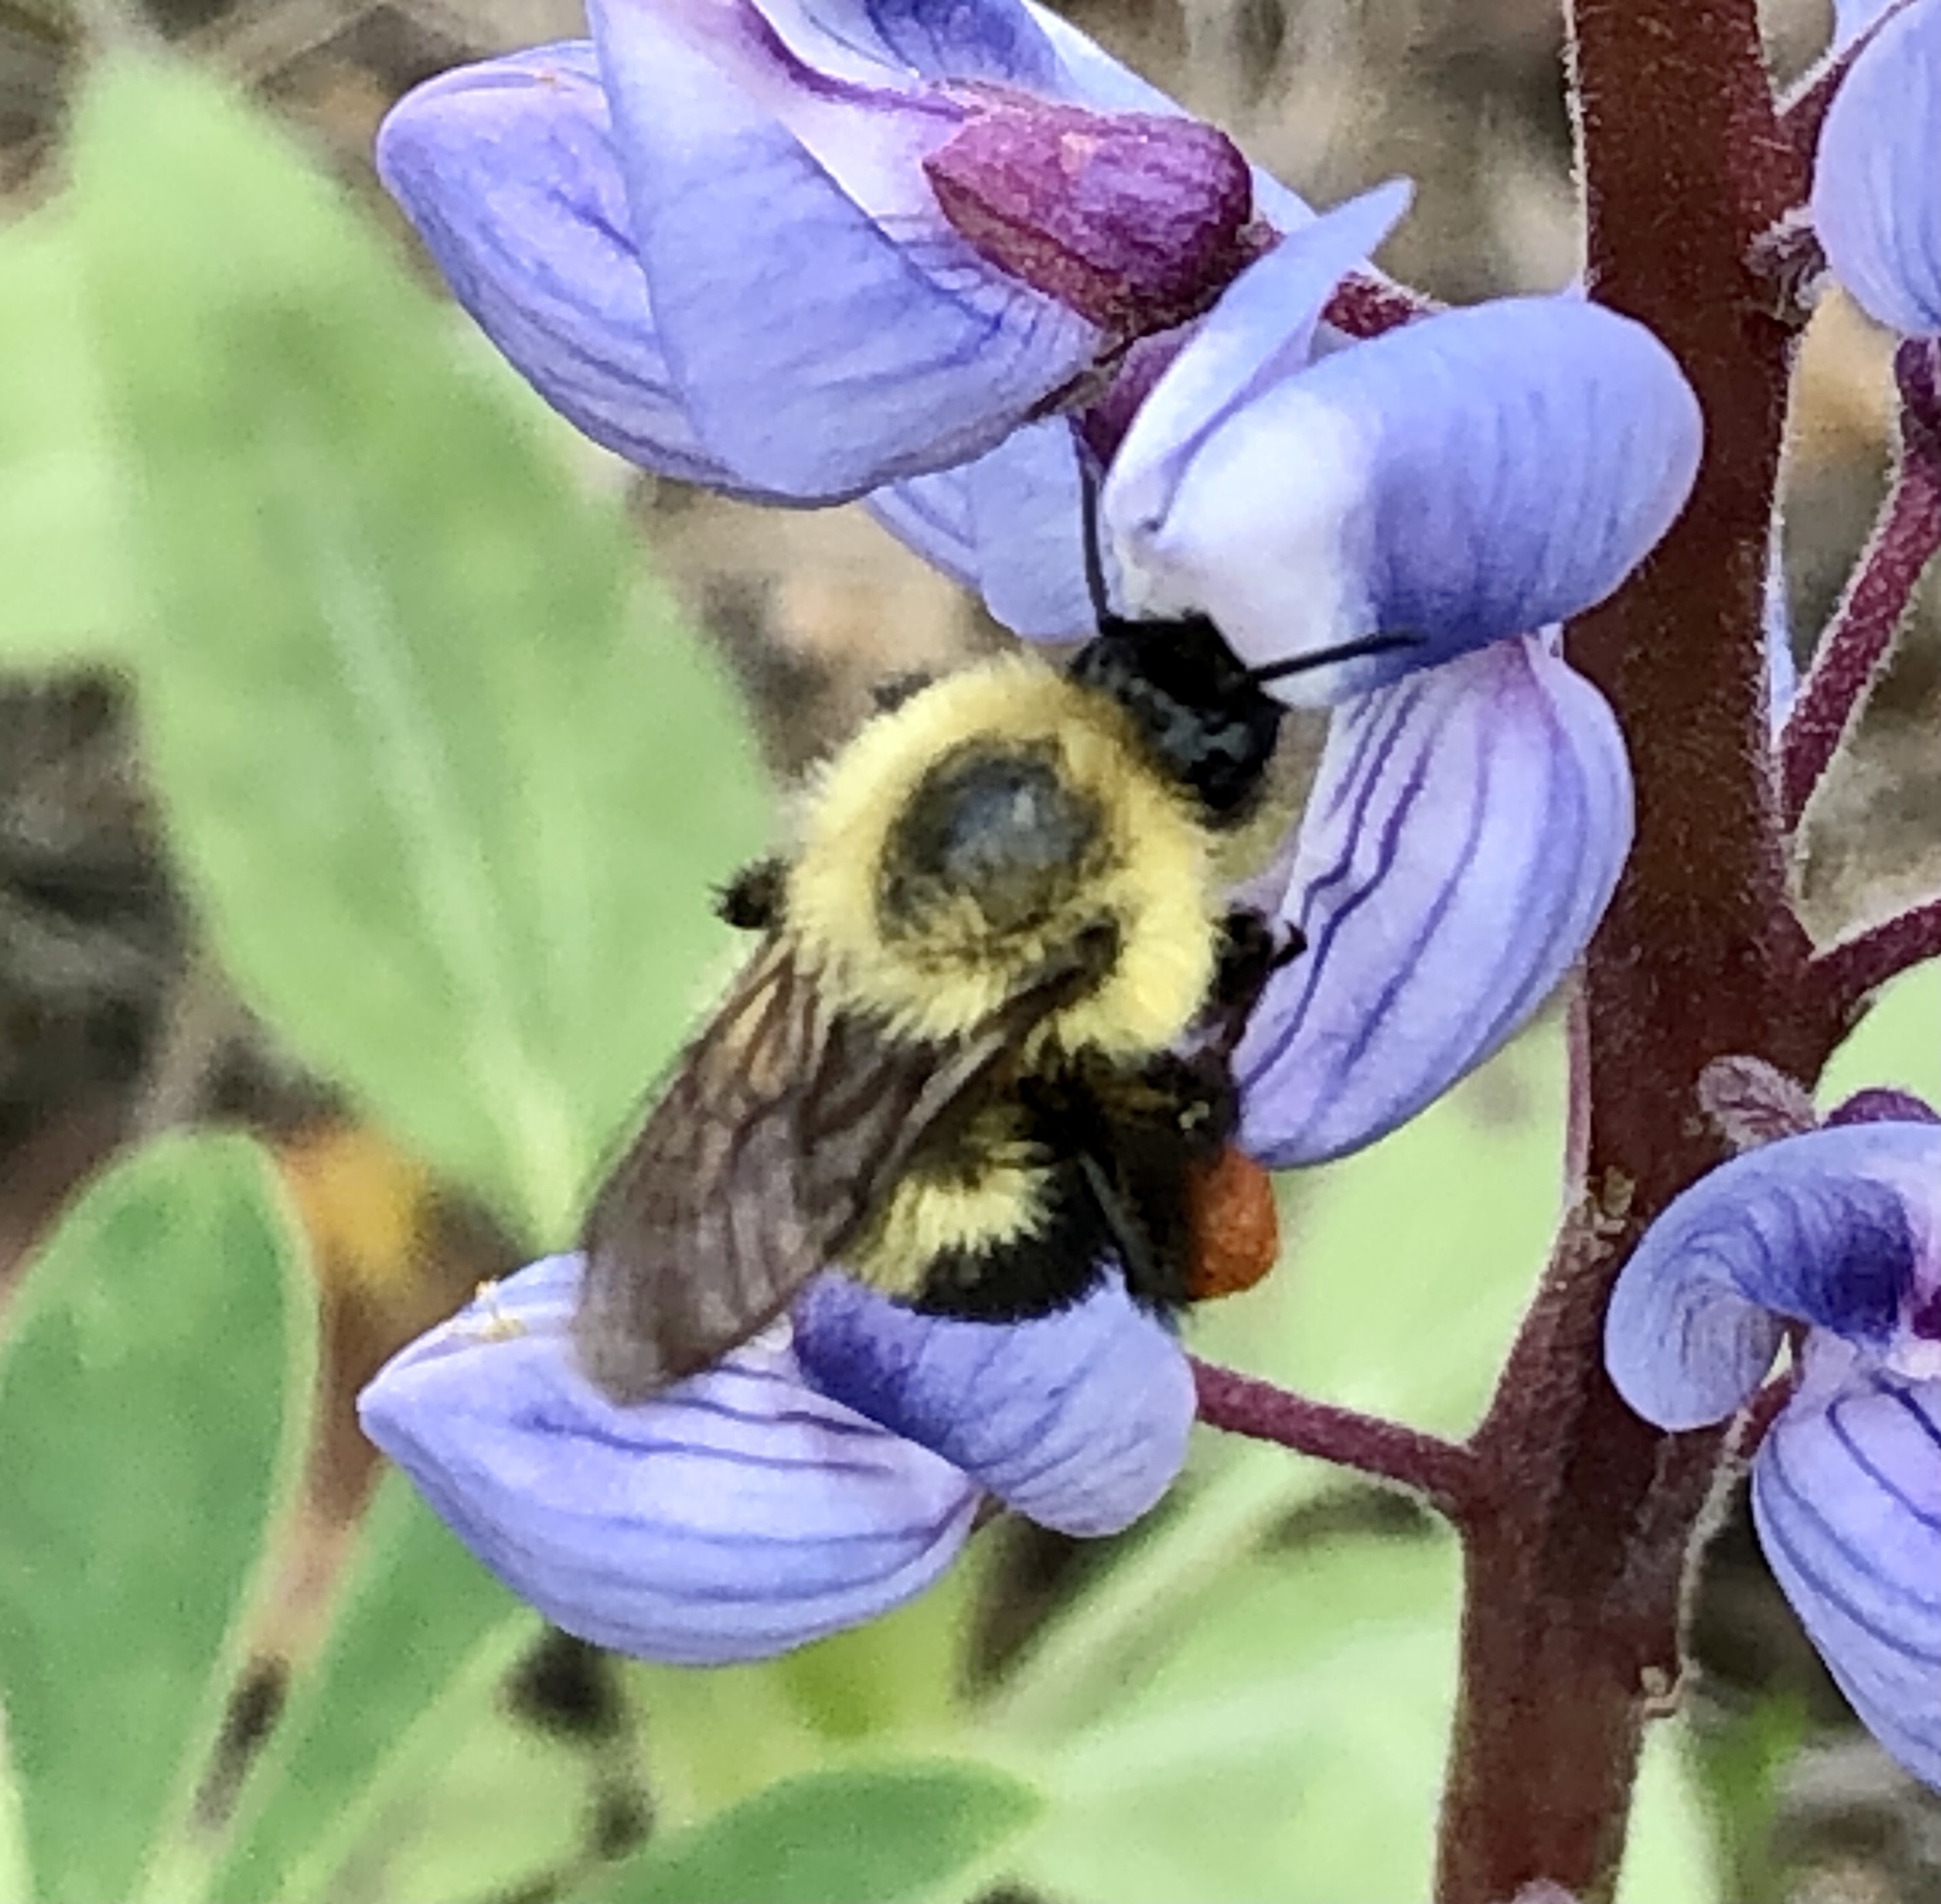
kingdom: Animalia
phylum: Arthropoda
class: Insecta
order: Hymenoptera
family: Apidae
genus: Bombus
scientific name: Bombus bimaculatus
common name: Two-spotted bumble bee
